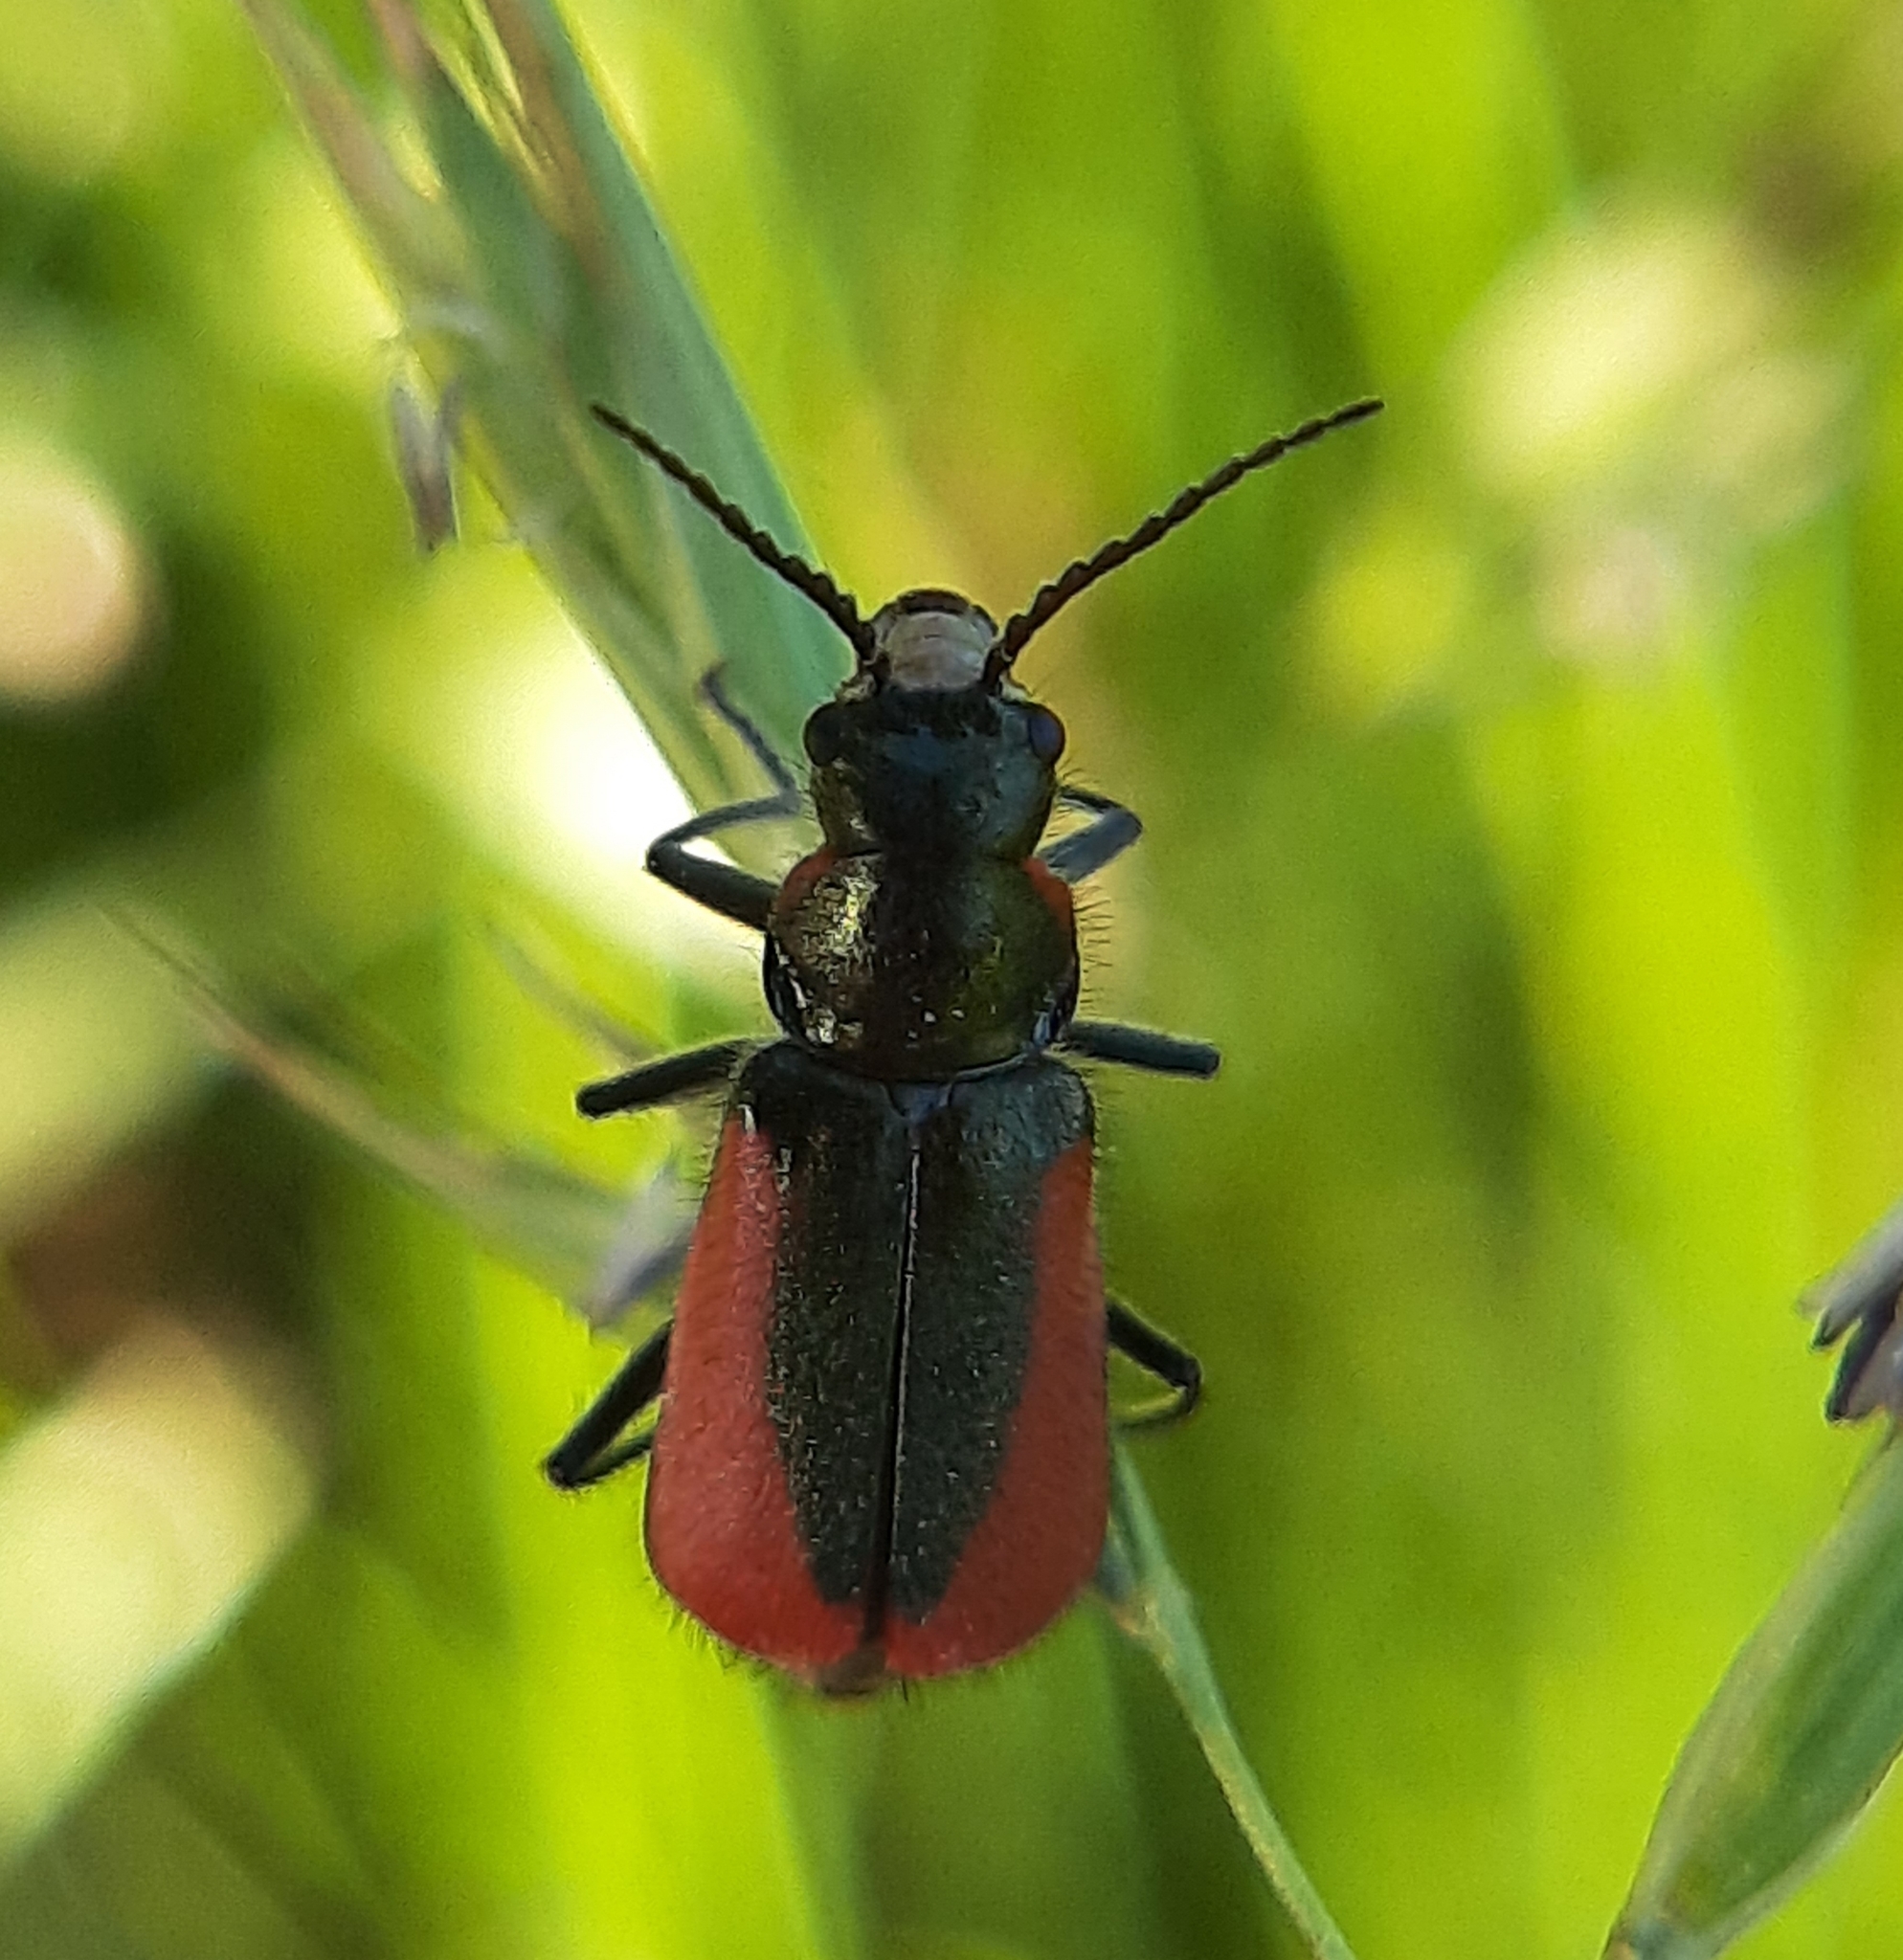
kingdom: Animalia
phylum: Arthropoda
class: Insecta
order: Coleoptera
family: Melyridae
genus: Malachius
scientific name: Malachius aeneus
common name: Scarlet malachite beetle
